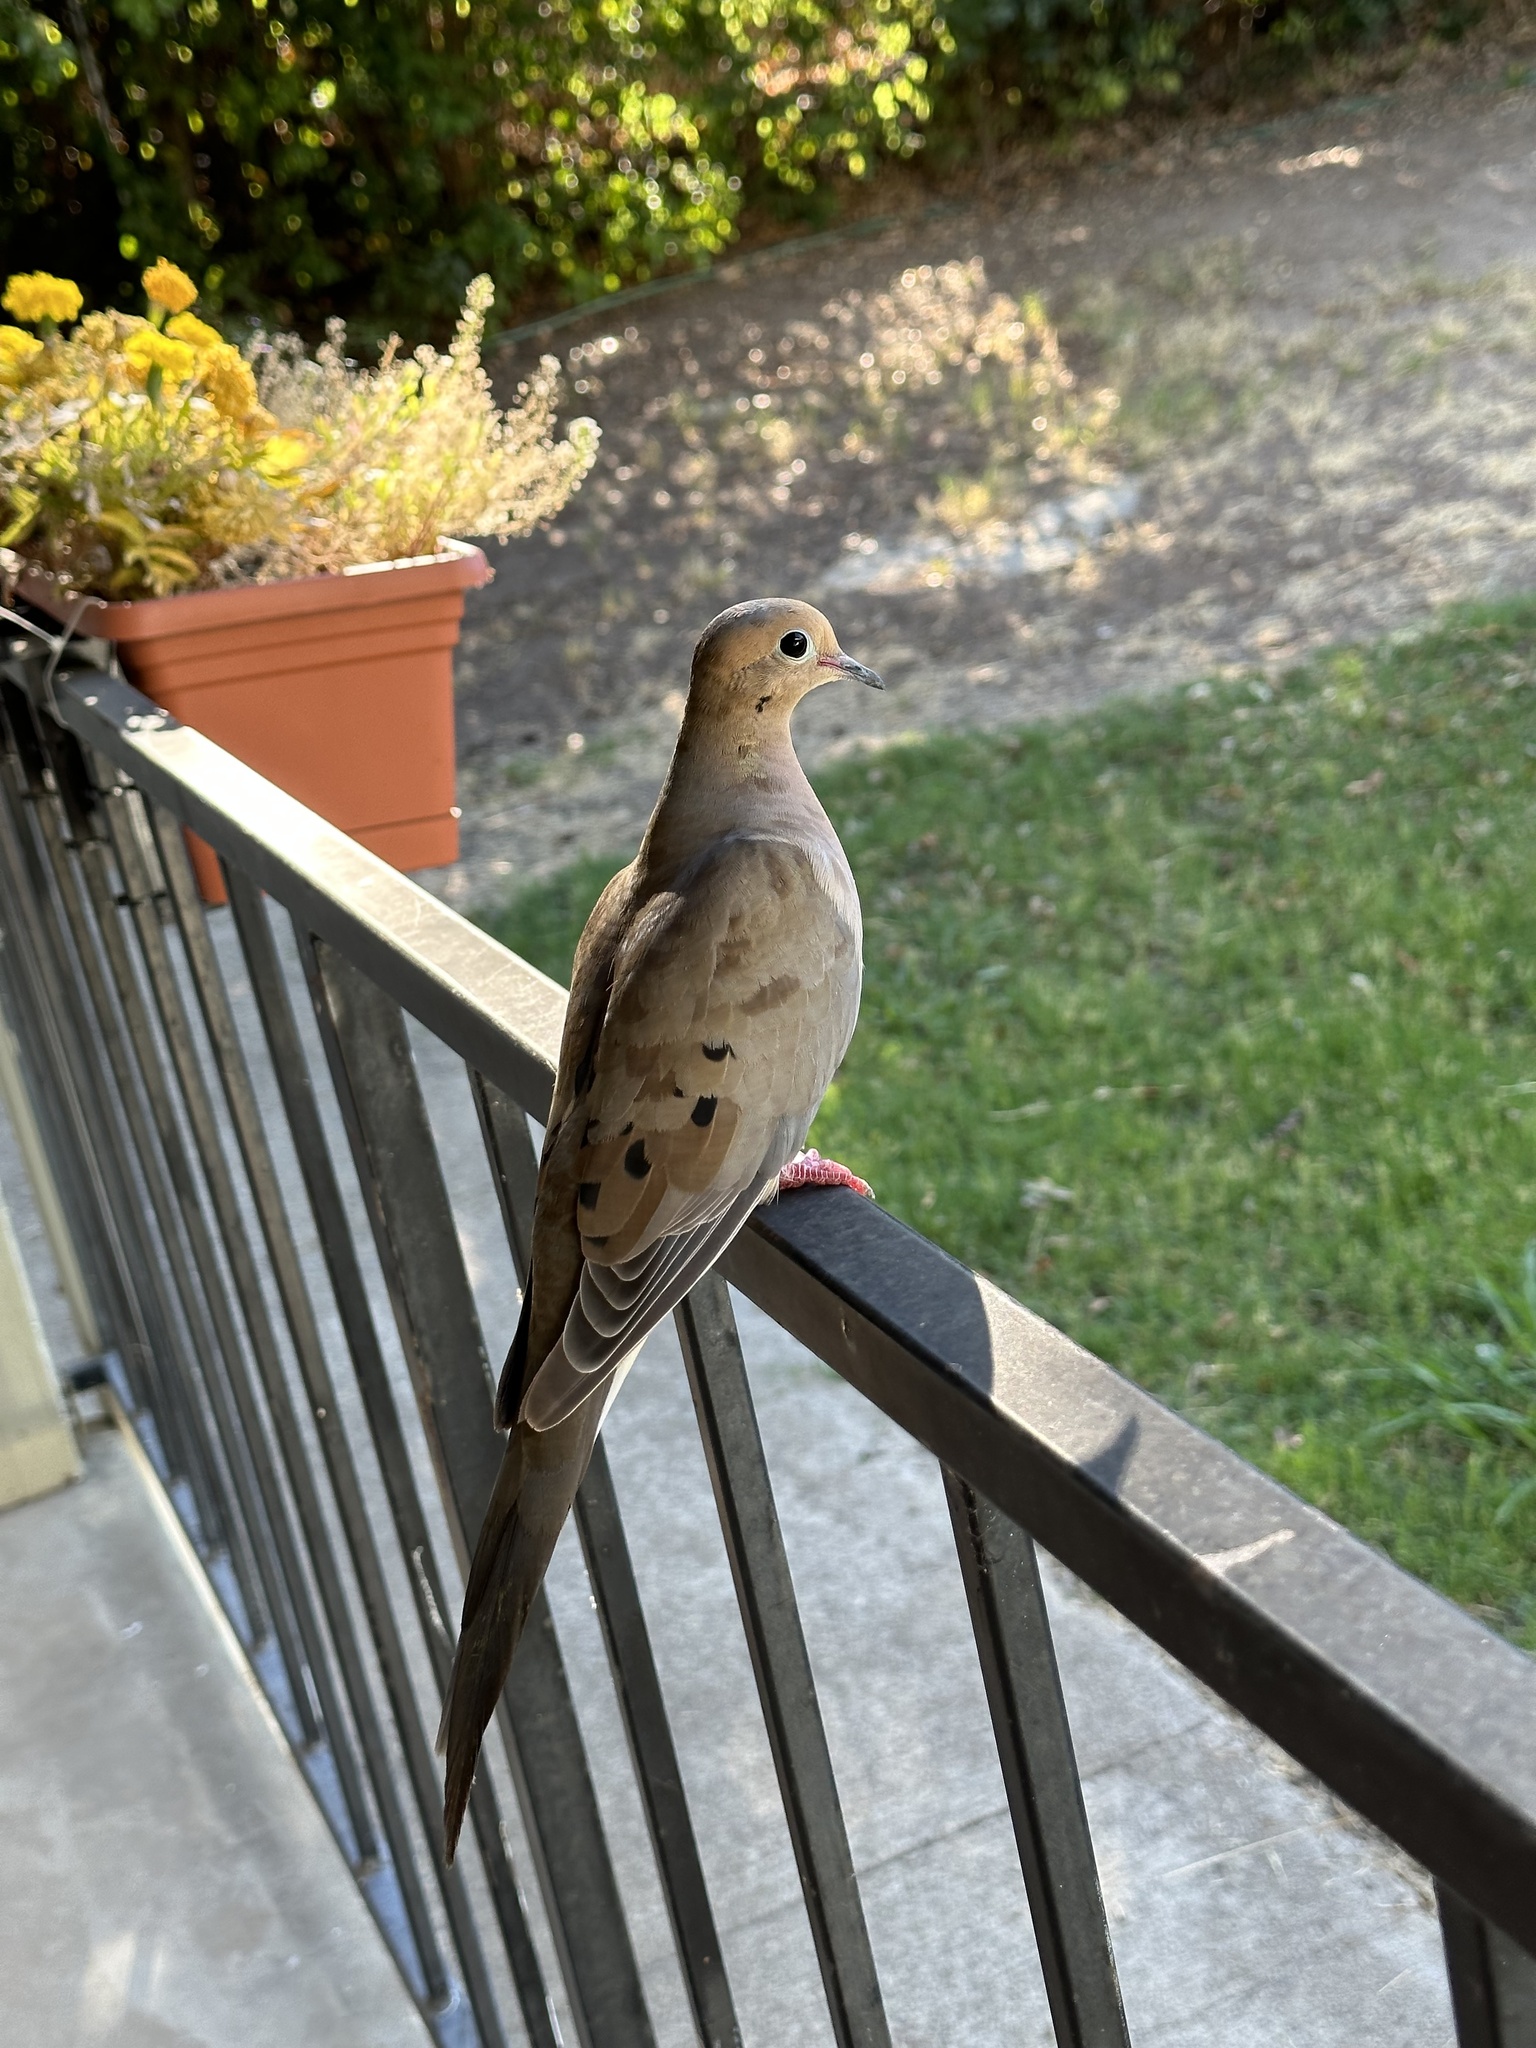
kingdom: Animalia
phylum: Chordata
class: Aves
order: Columbiformes
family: Columbidae
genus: Zenaida
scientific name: Zenaida macroura
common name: Mourning dove
